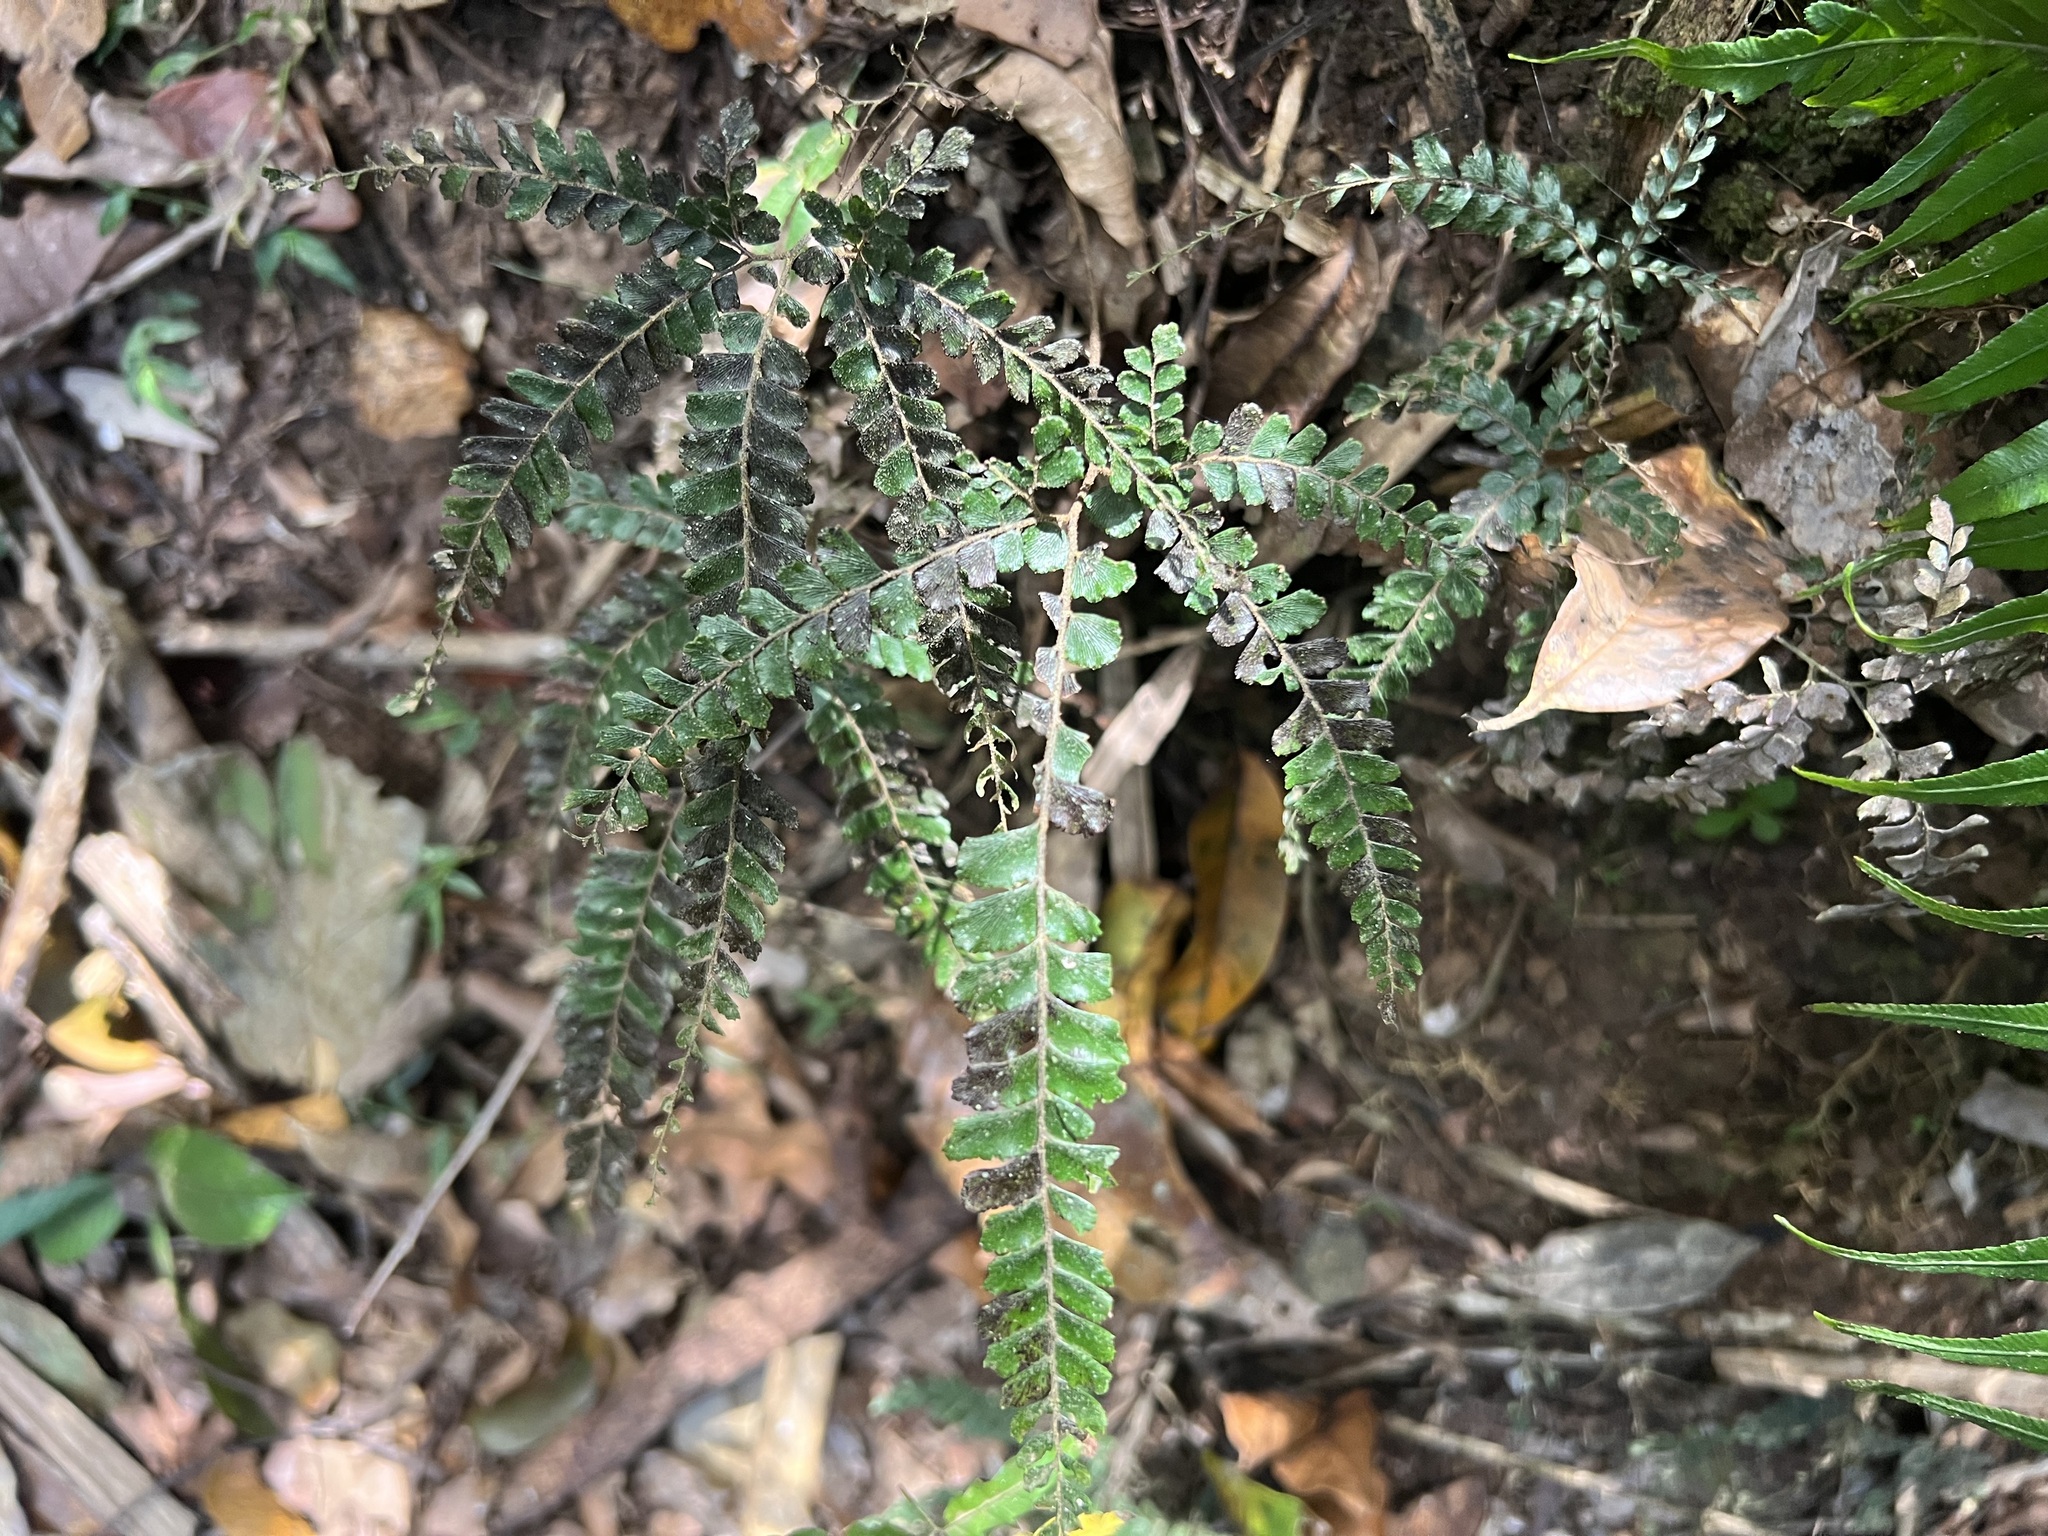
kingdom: Plantae
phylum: Tracheophyta
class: Polypodiopsida
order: Polypodiales
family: Pteridaceae
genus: Adiantum
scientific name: Adiantum hispidulum
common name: Rough maidenhair
